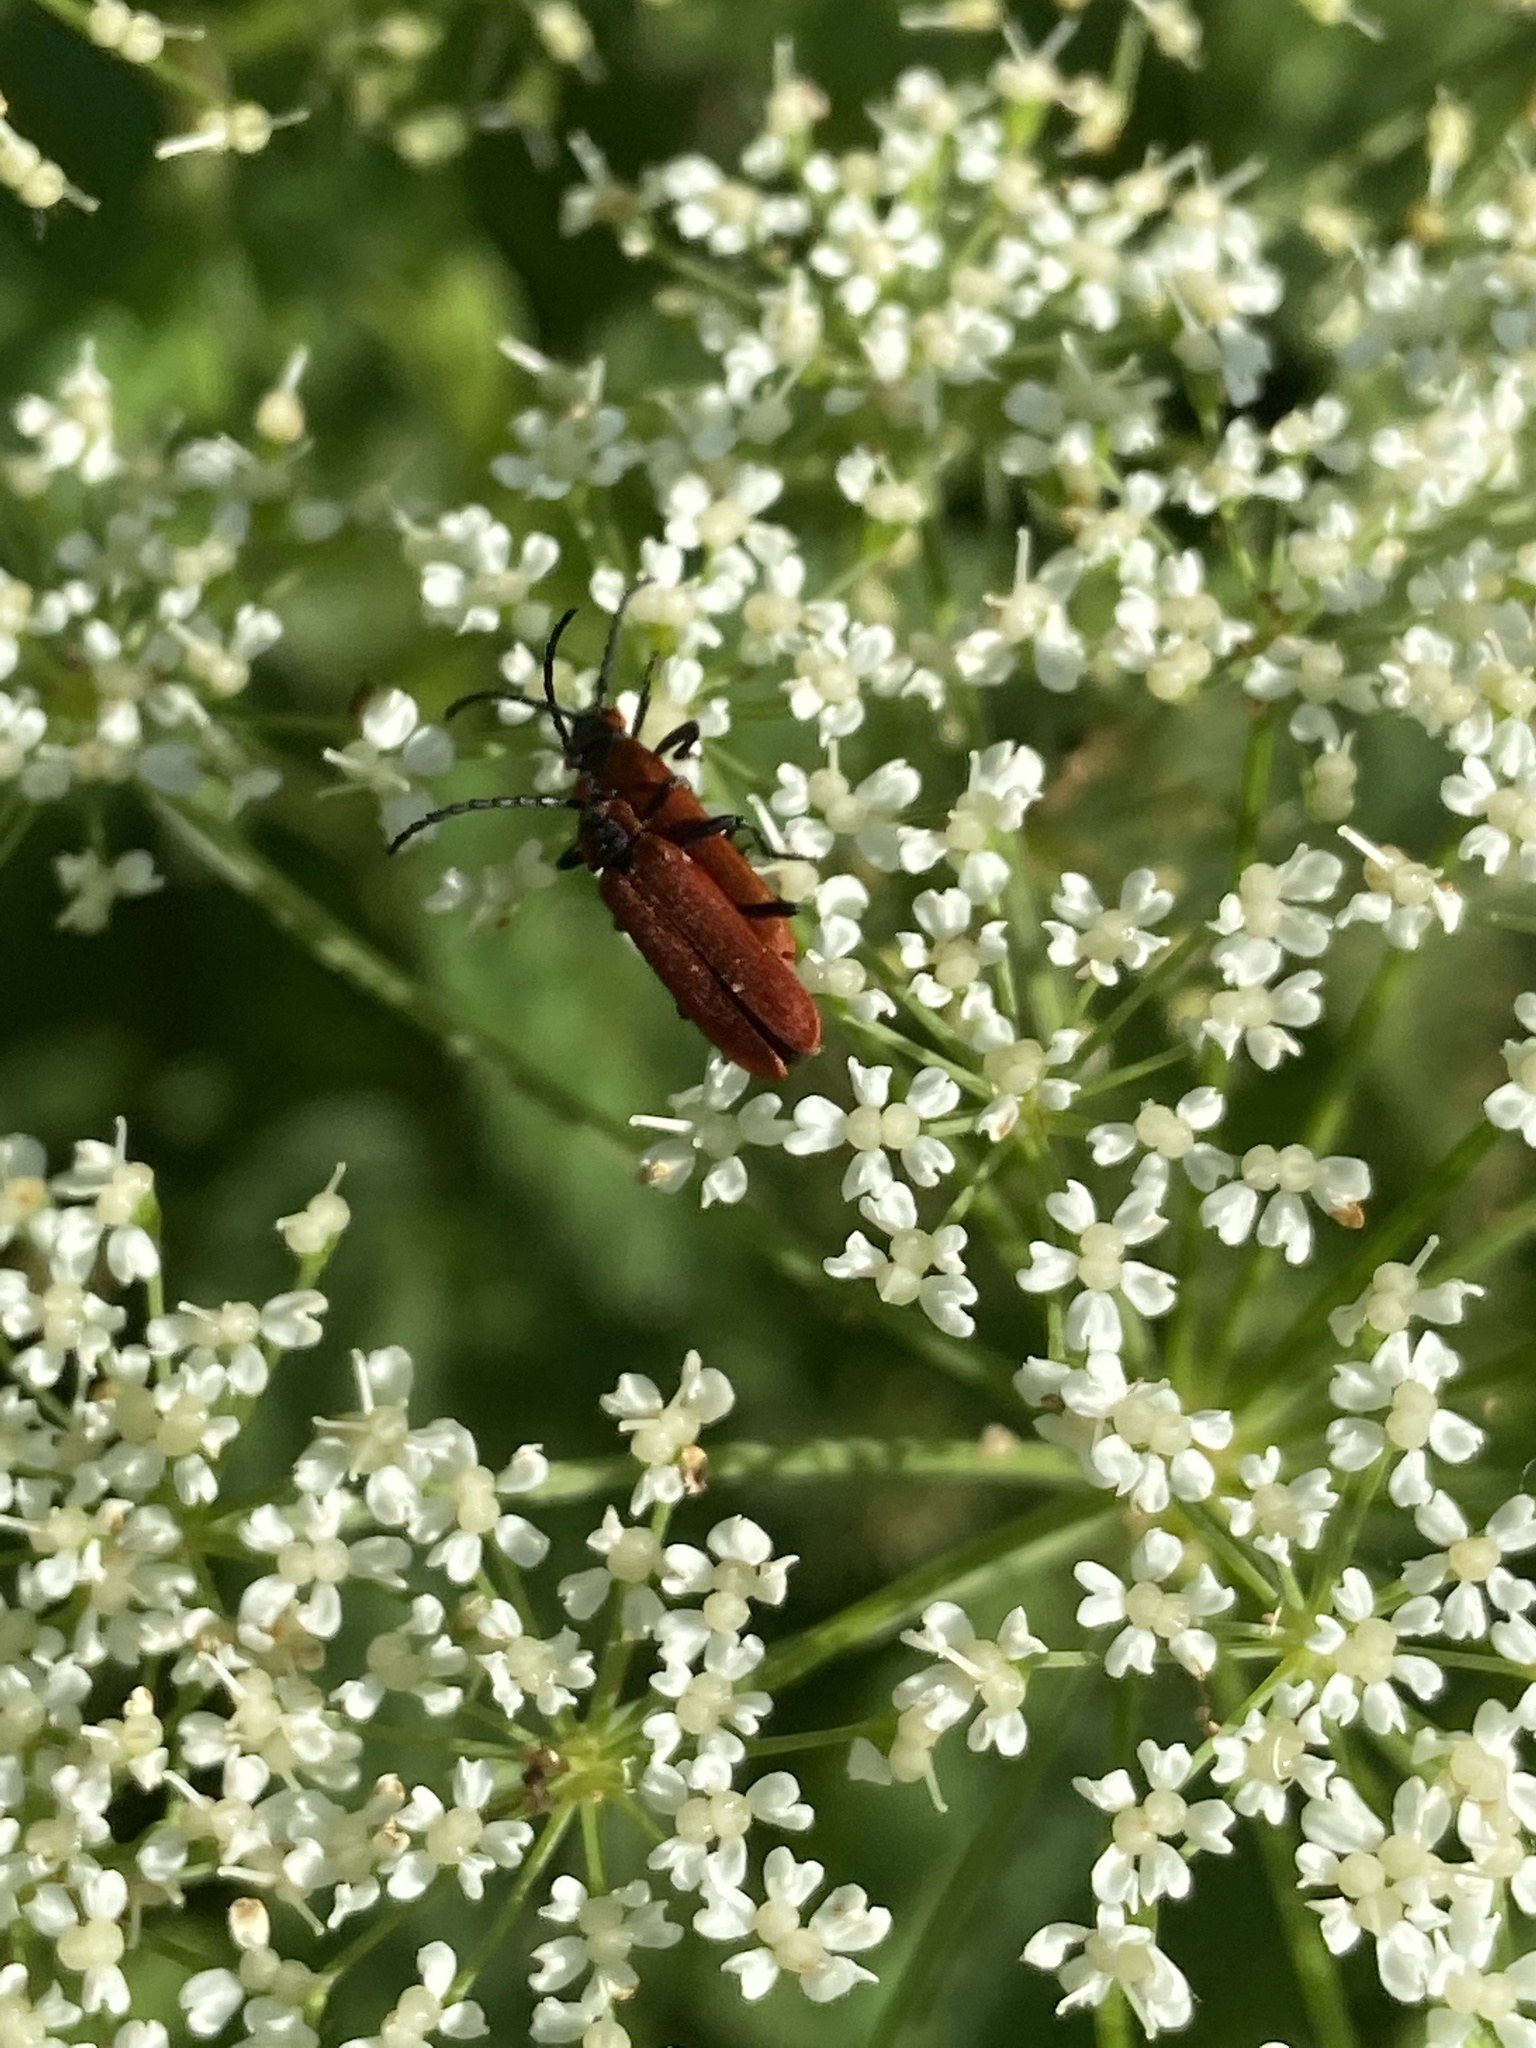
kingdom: Animalia
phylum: Arthropoda
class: Insecta
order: Coleoptera
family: Lycidae
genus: Lygistopterus
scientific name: Lygistopterus sanguineus
